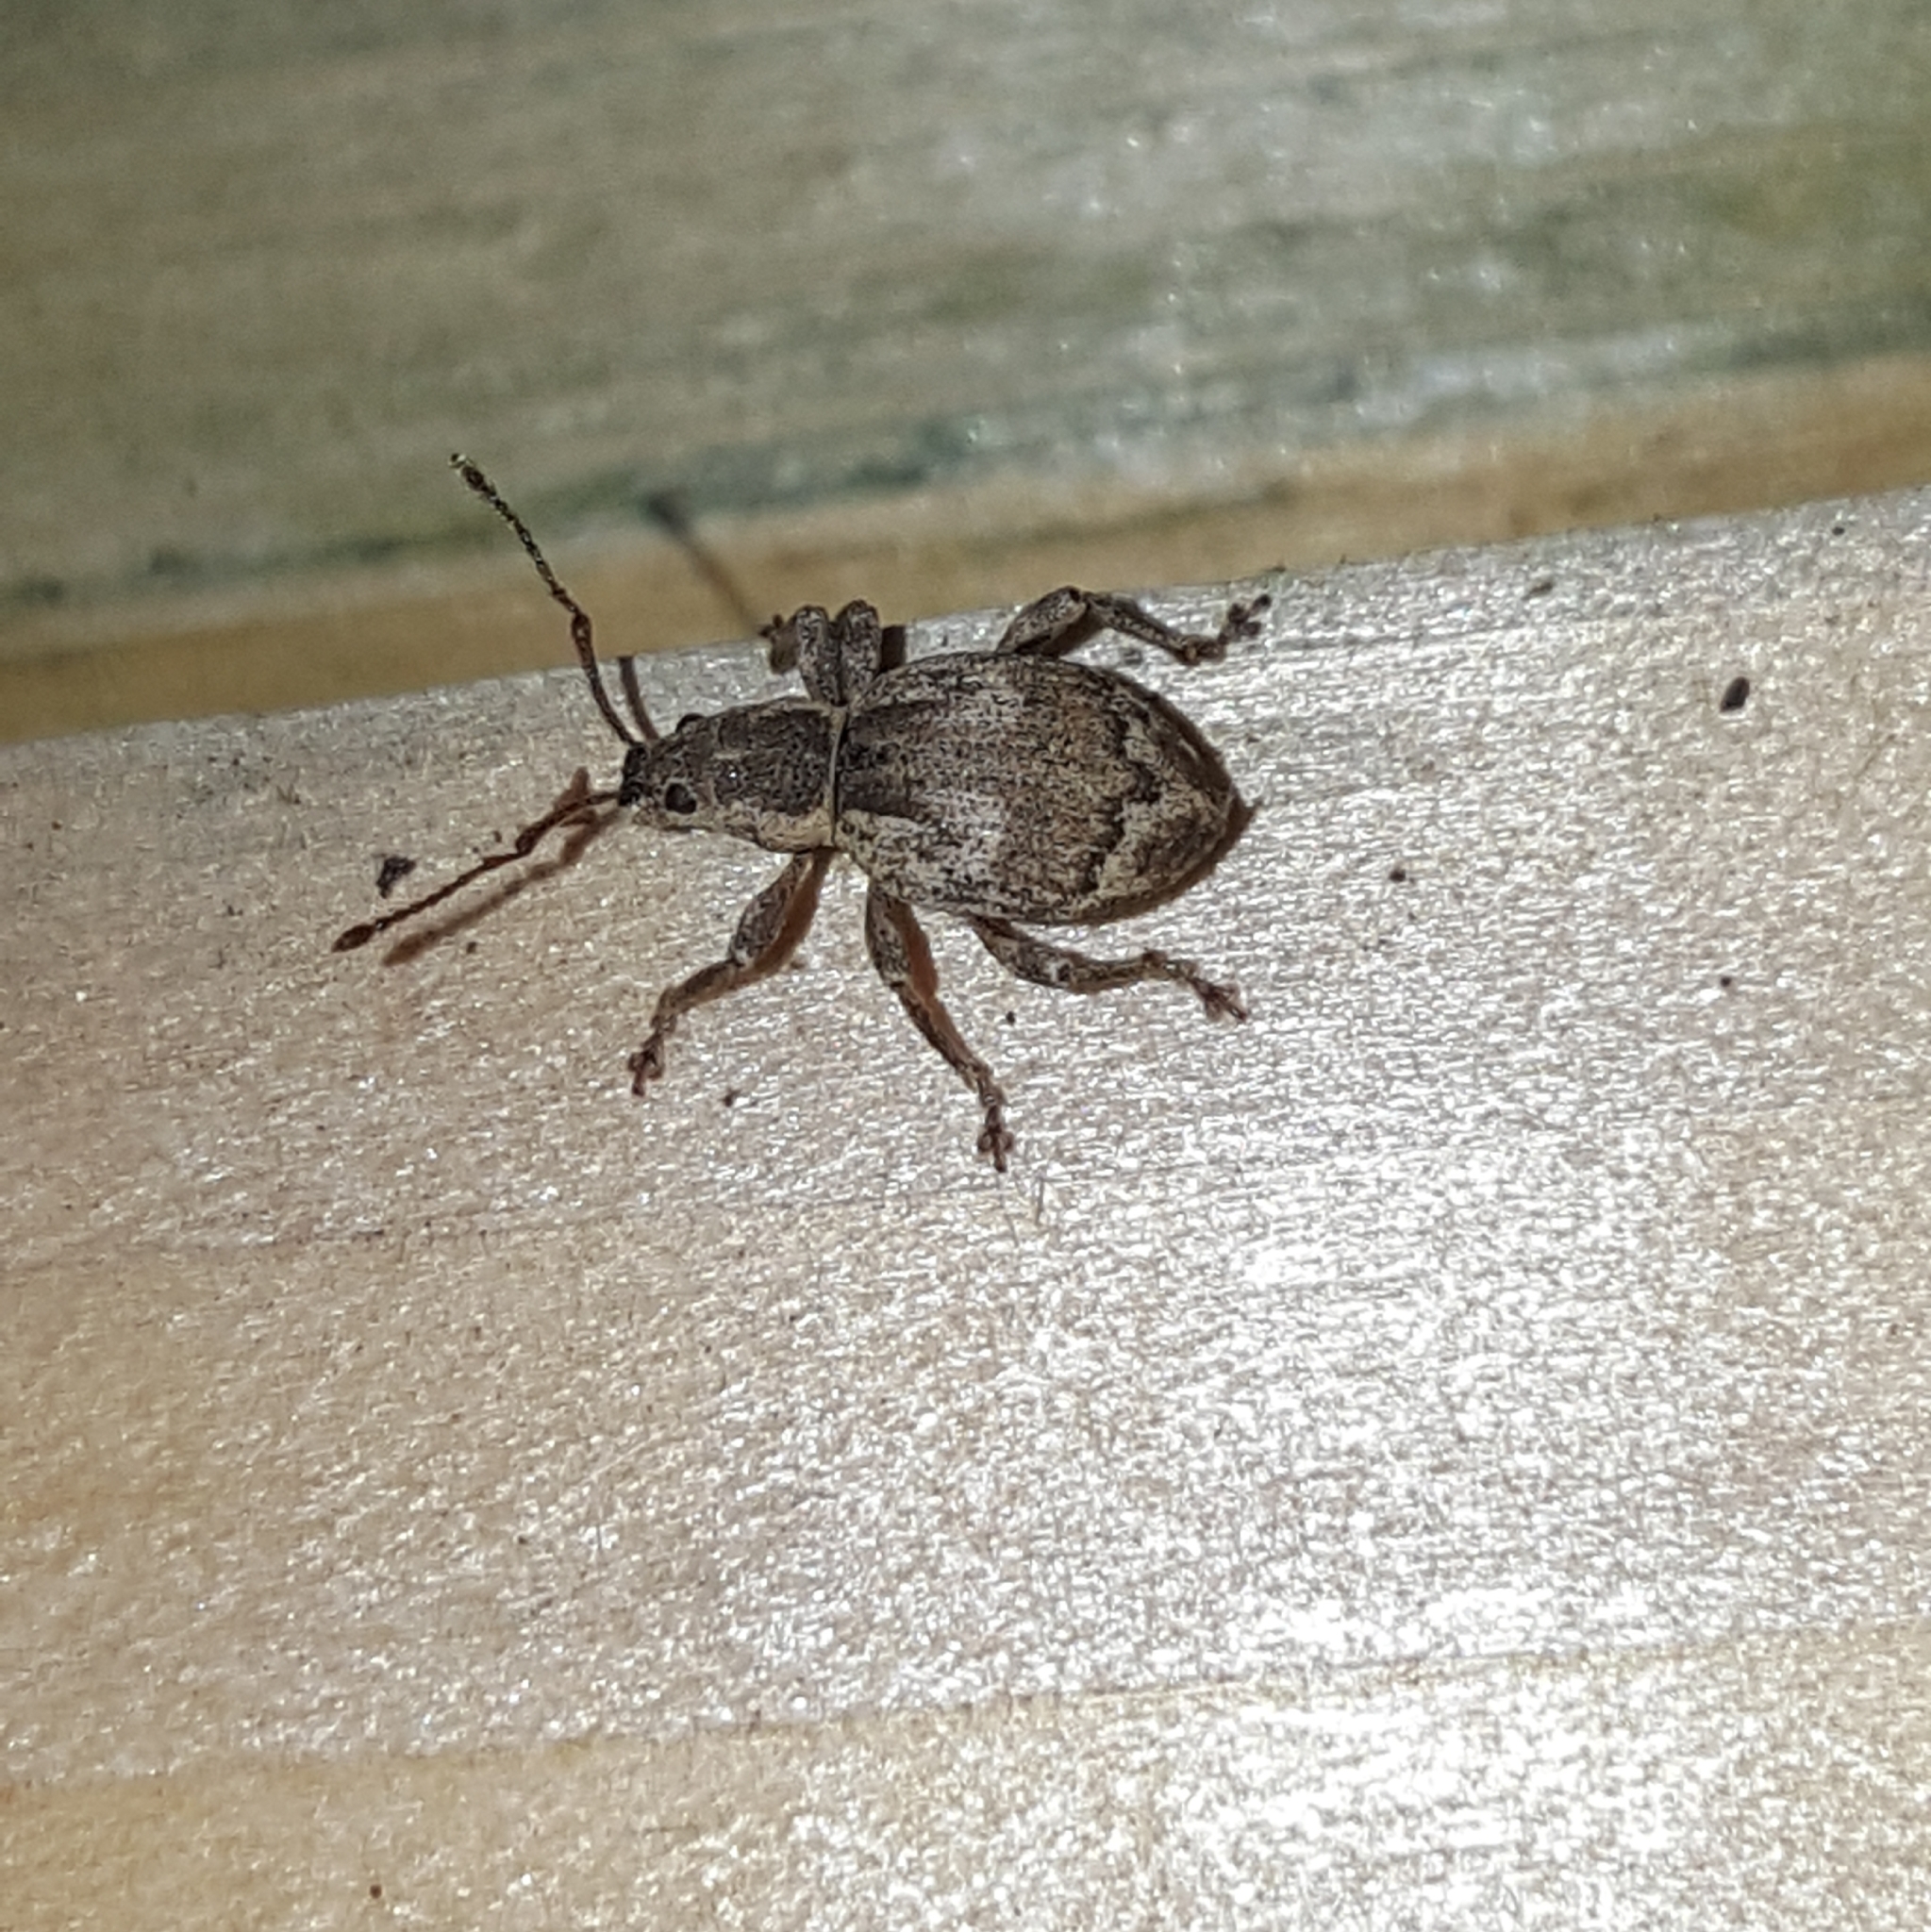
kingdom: Animalia
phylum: Arthropoda
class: Insecta
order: Coleoptera
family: Curculionidae
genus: Sciopithes
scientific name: Sciopithes obscurus
